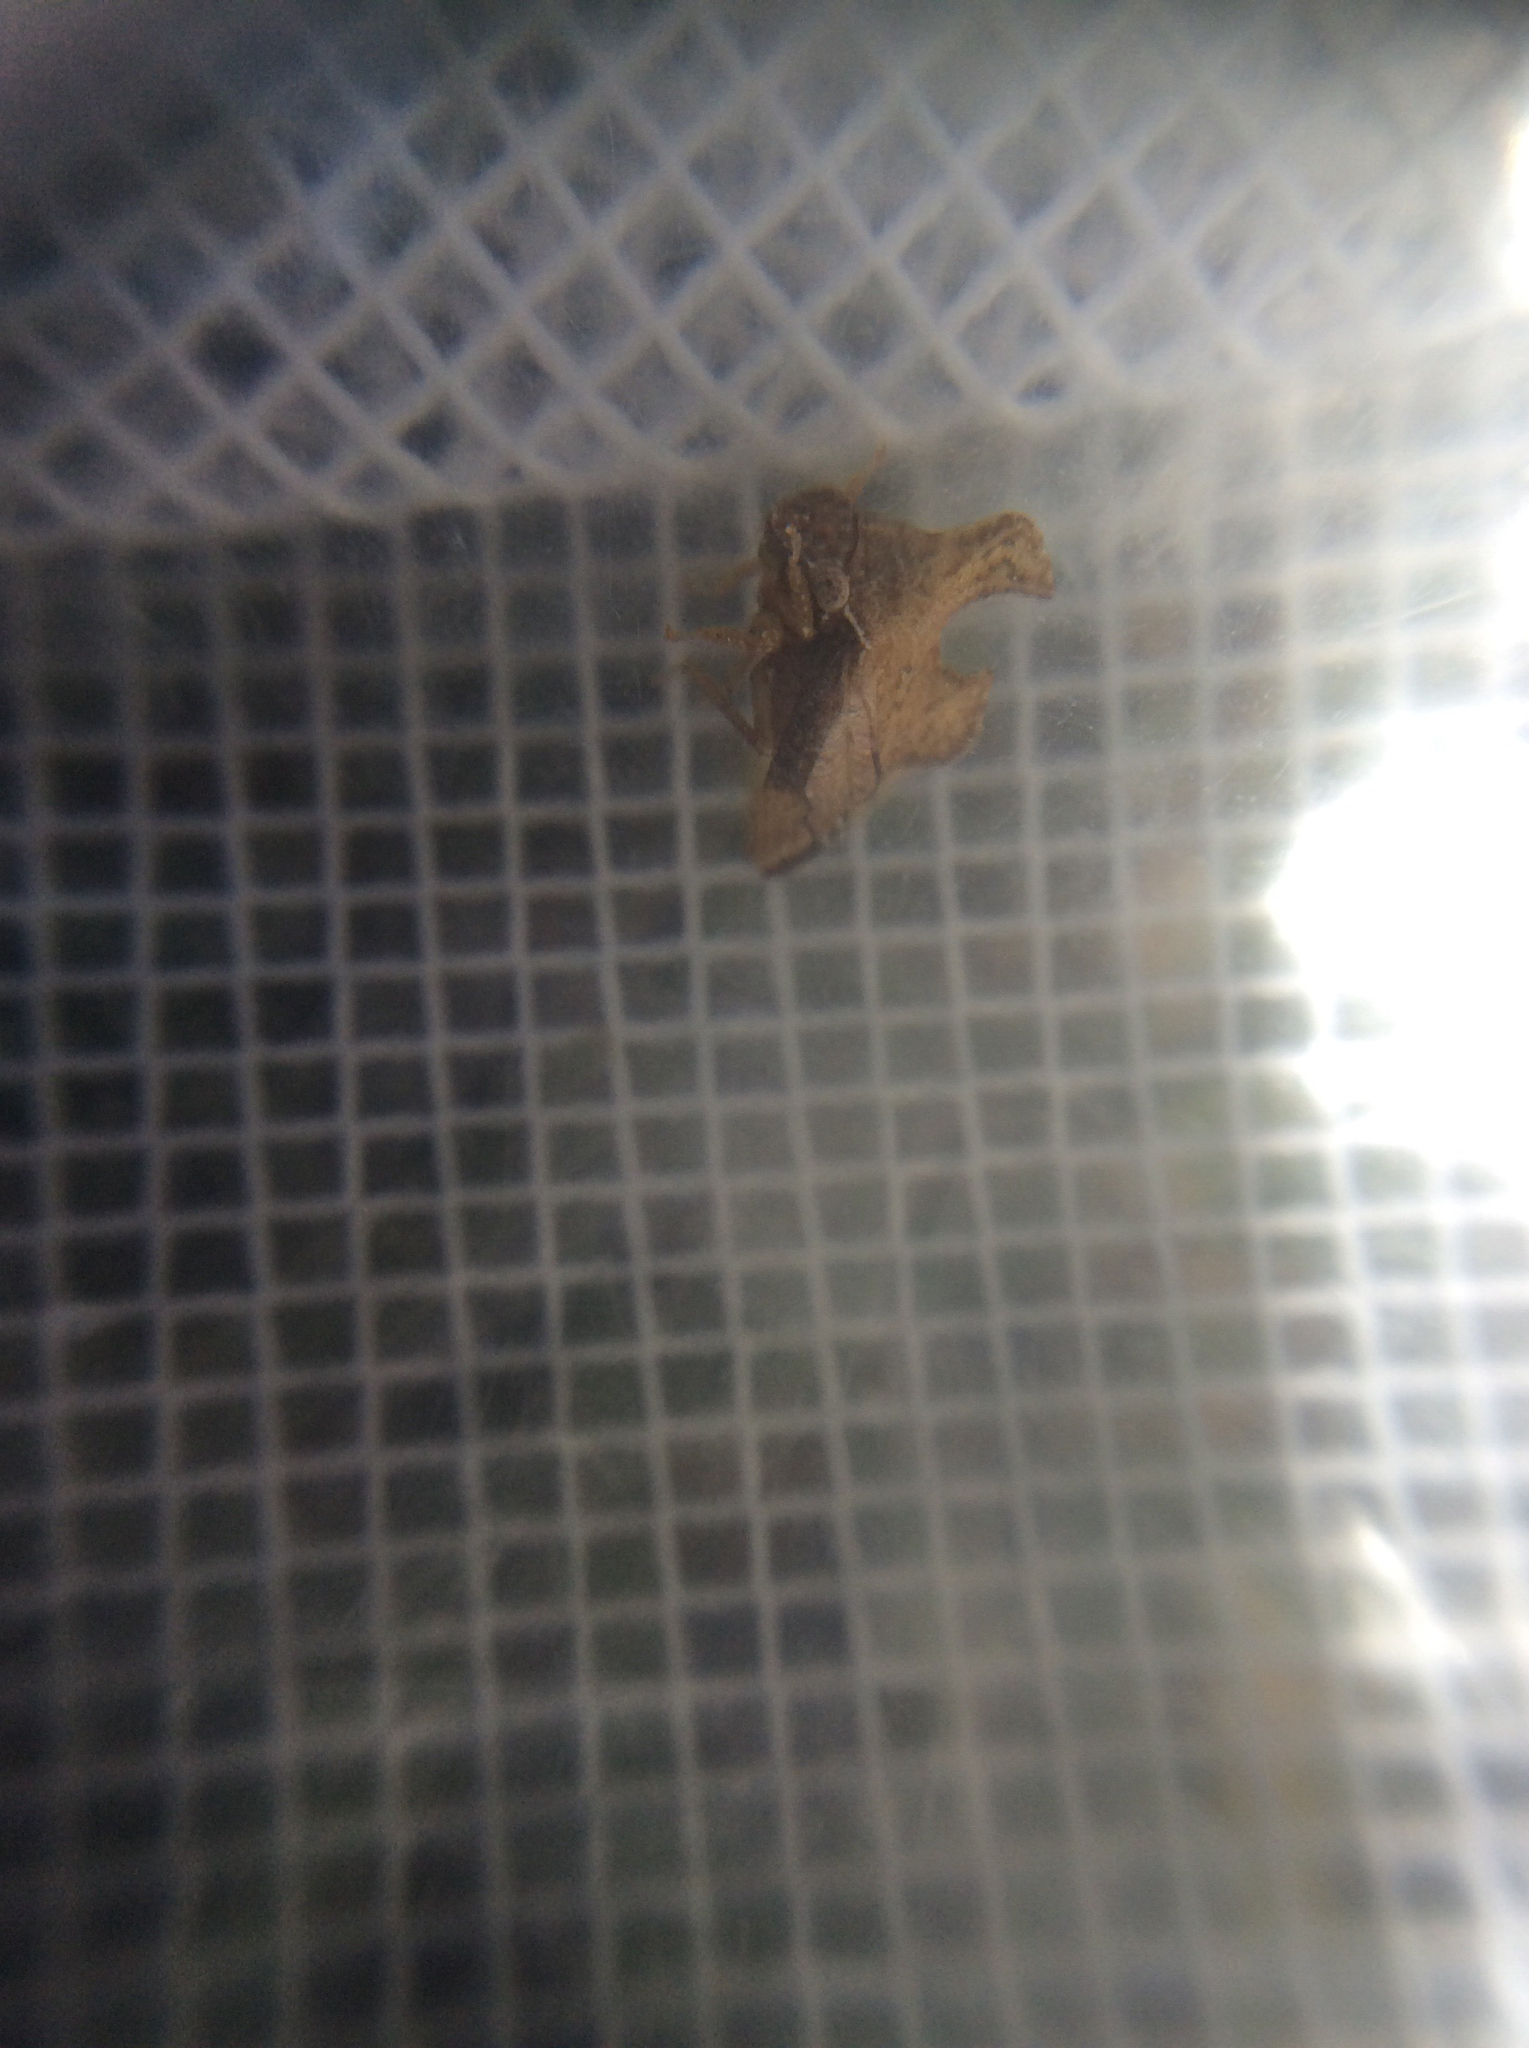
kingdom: Animalia
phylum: Arthropoda
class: Insecta
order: Hemiptera
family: Membracidae
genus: Entylia
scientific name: Entylia carinata
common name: Keeled treehopper
